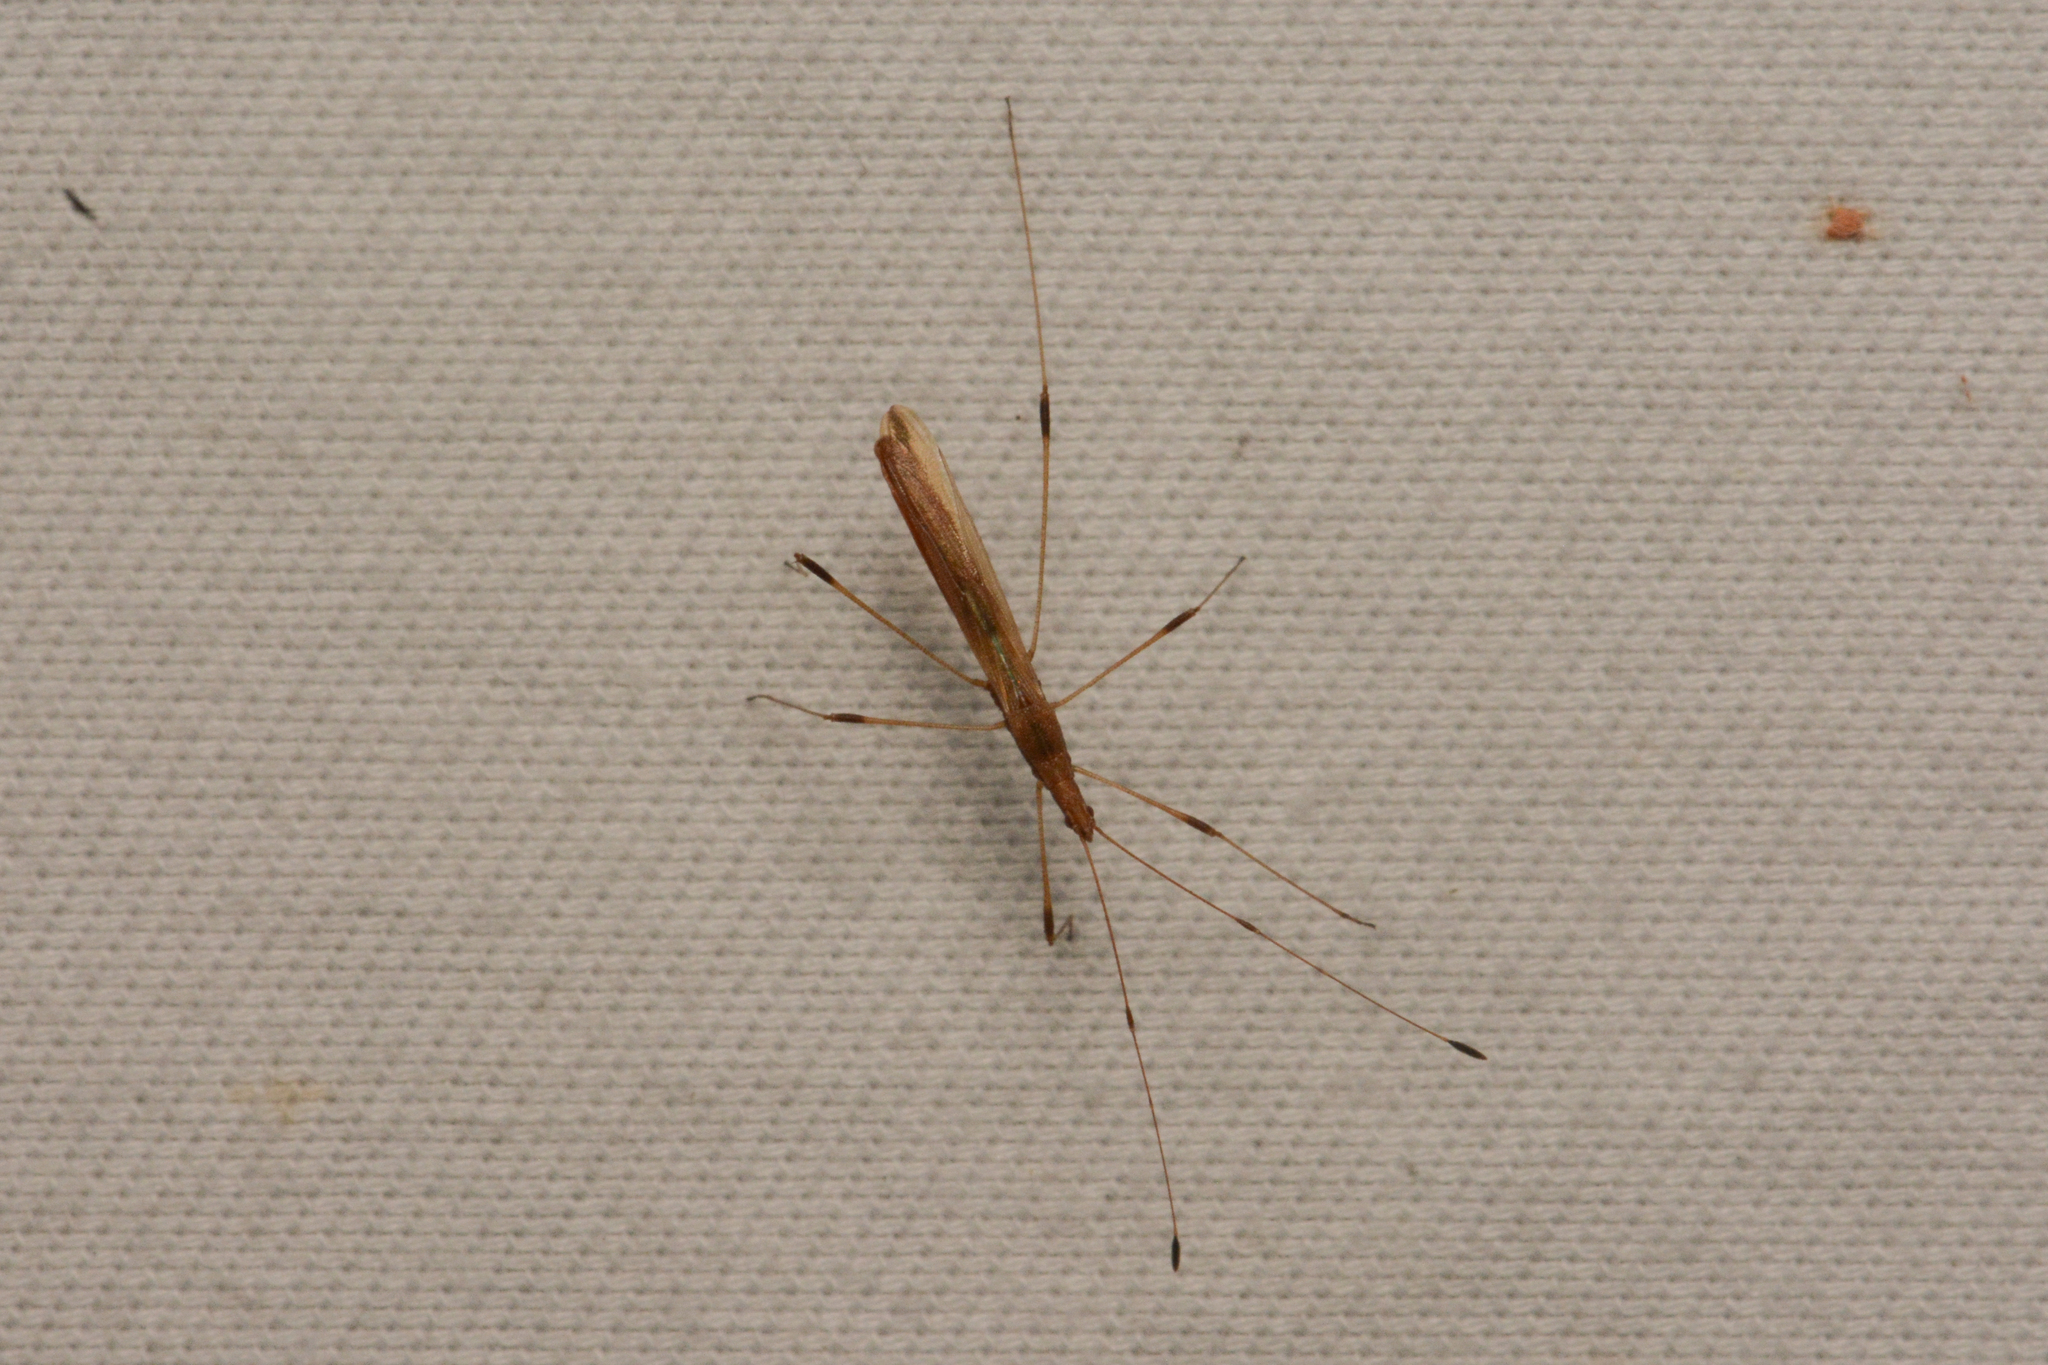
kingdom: Animalia
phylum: Arthropoda
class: Insecta
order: Hemiptera
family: Berytidae
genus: Neoneides
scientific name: Neoneides muticus
